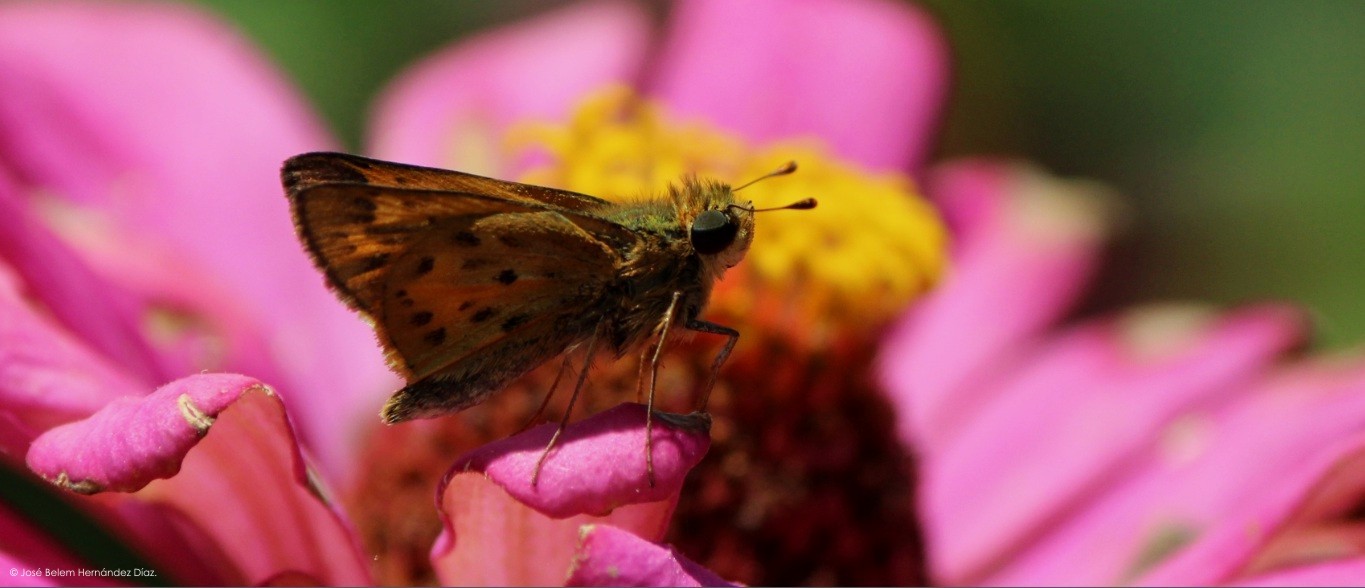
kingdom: Animalia
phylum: Arthropoda
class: Insecta
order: Lepidoptera
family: Hesperiidae
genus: Hylephila
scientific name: Hylephila phyleus
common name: Fiery skipper
